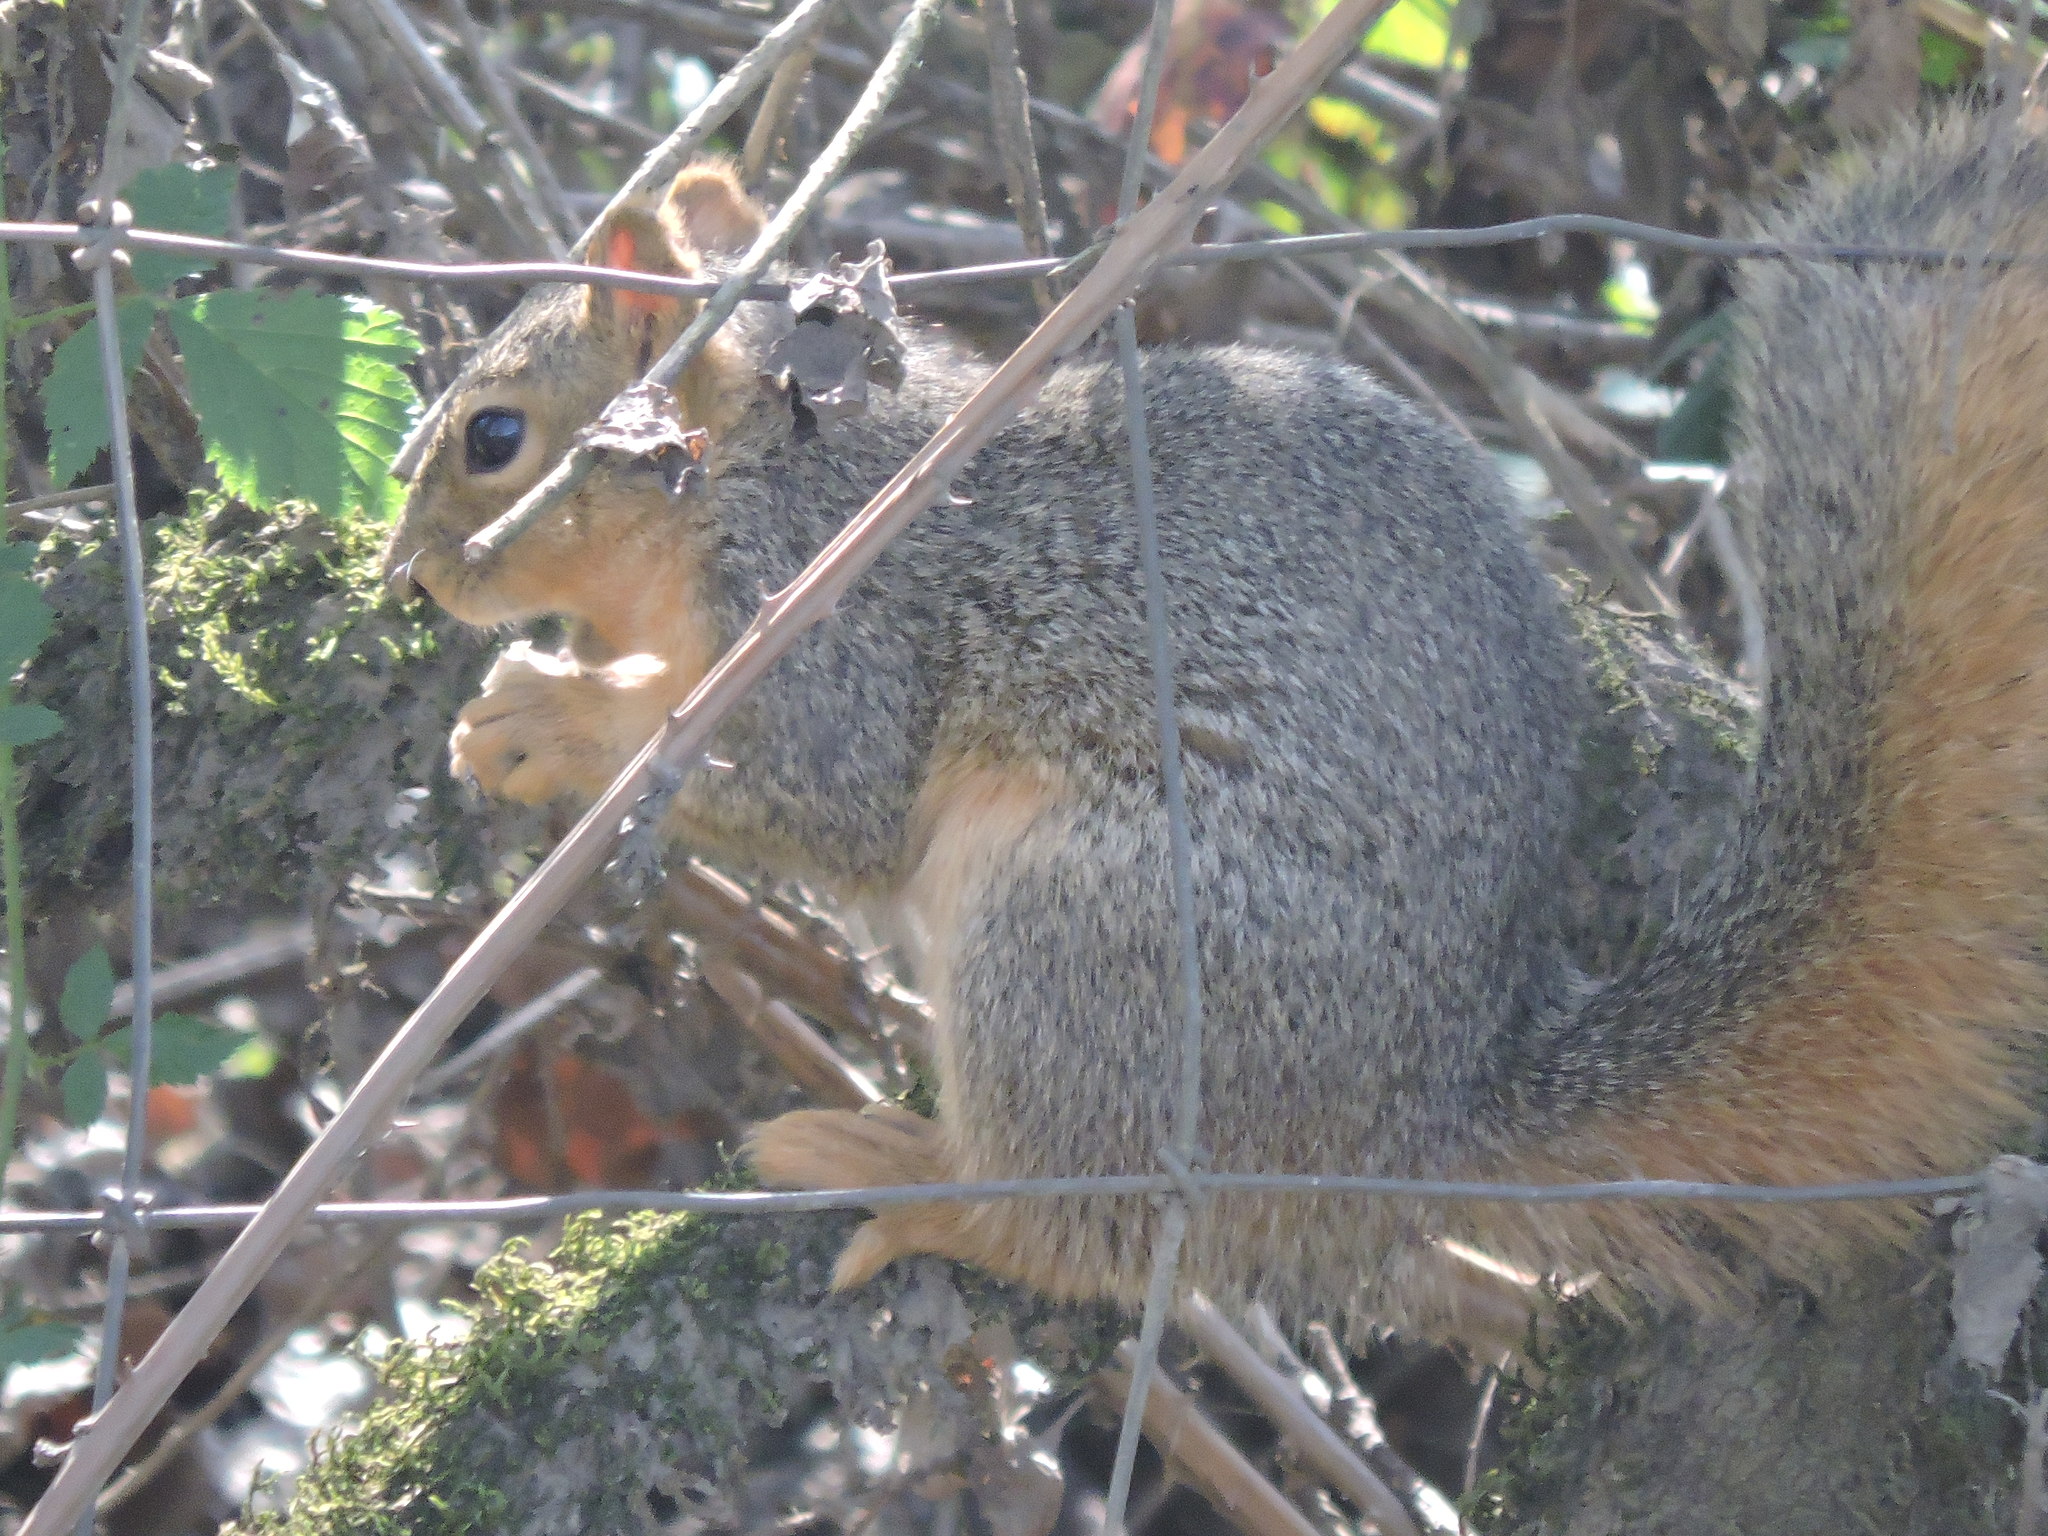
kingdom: Animalia
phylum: Chordata
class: Mammalia
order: Rodentia
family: Sciuridae
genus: Sciurus
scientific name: Sciurus niger
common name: Fox squirrel
